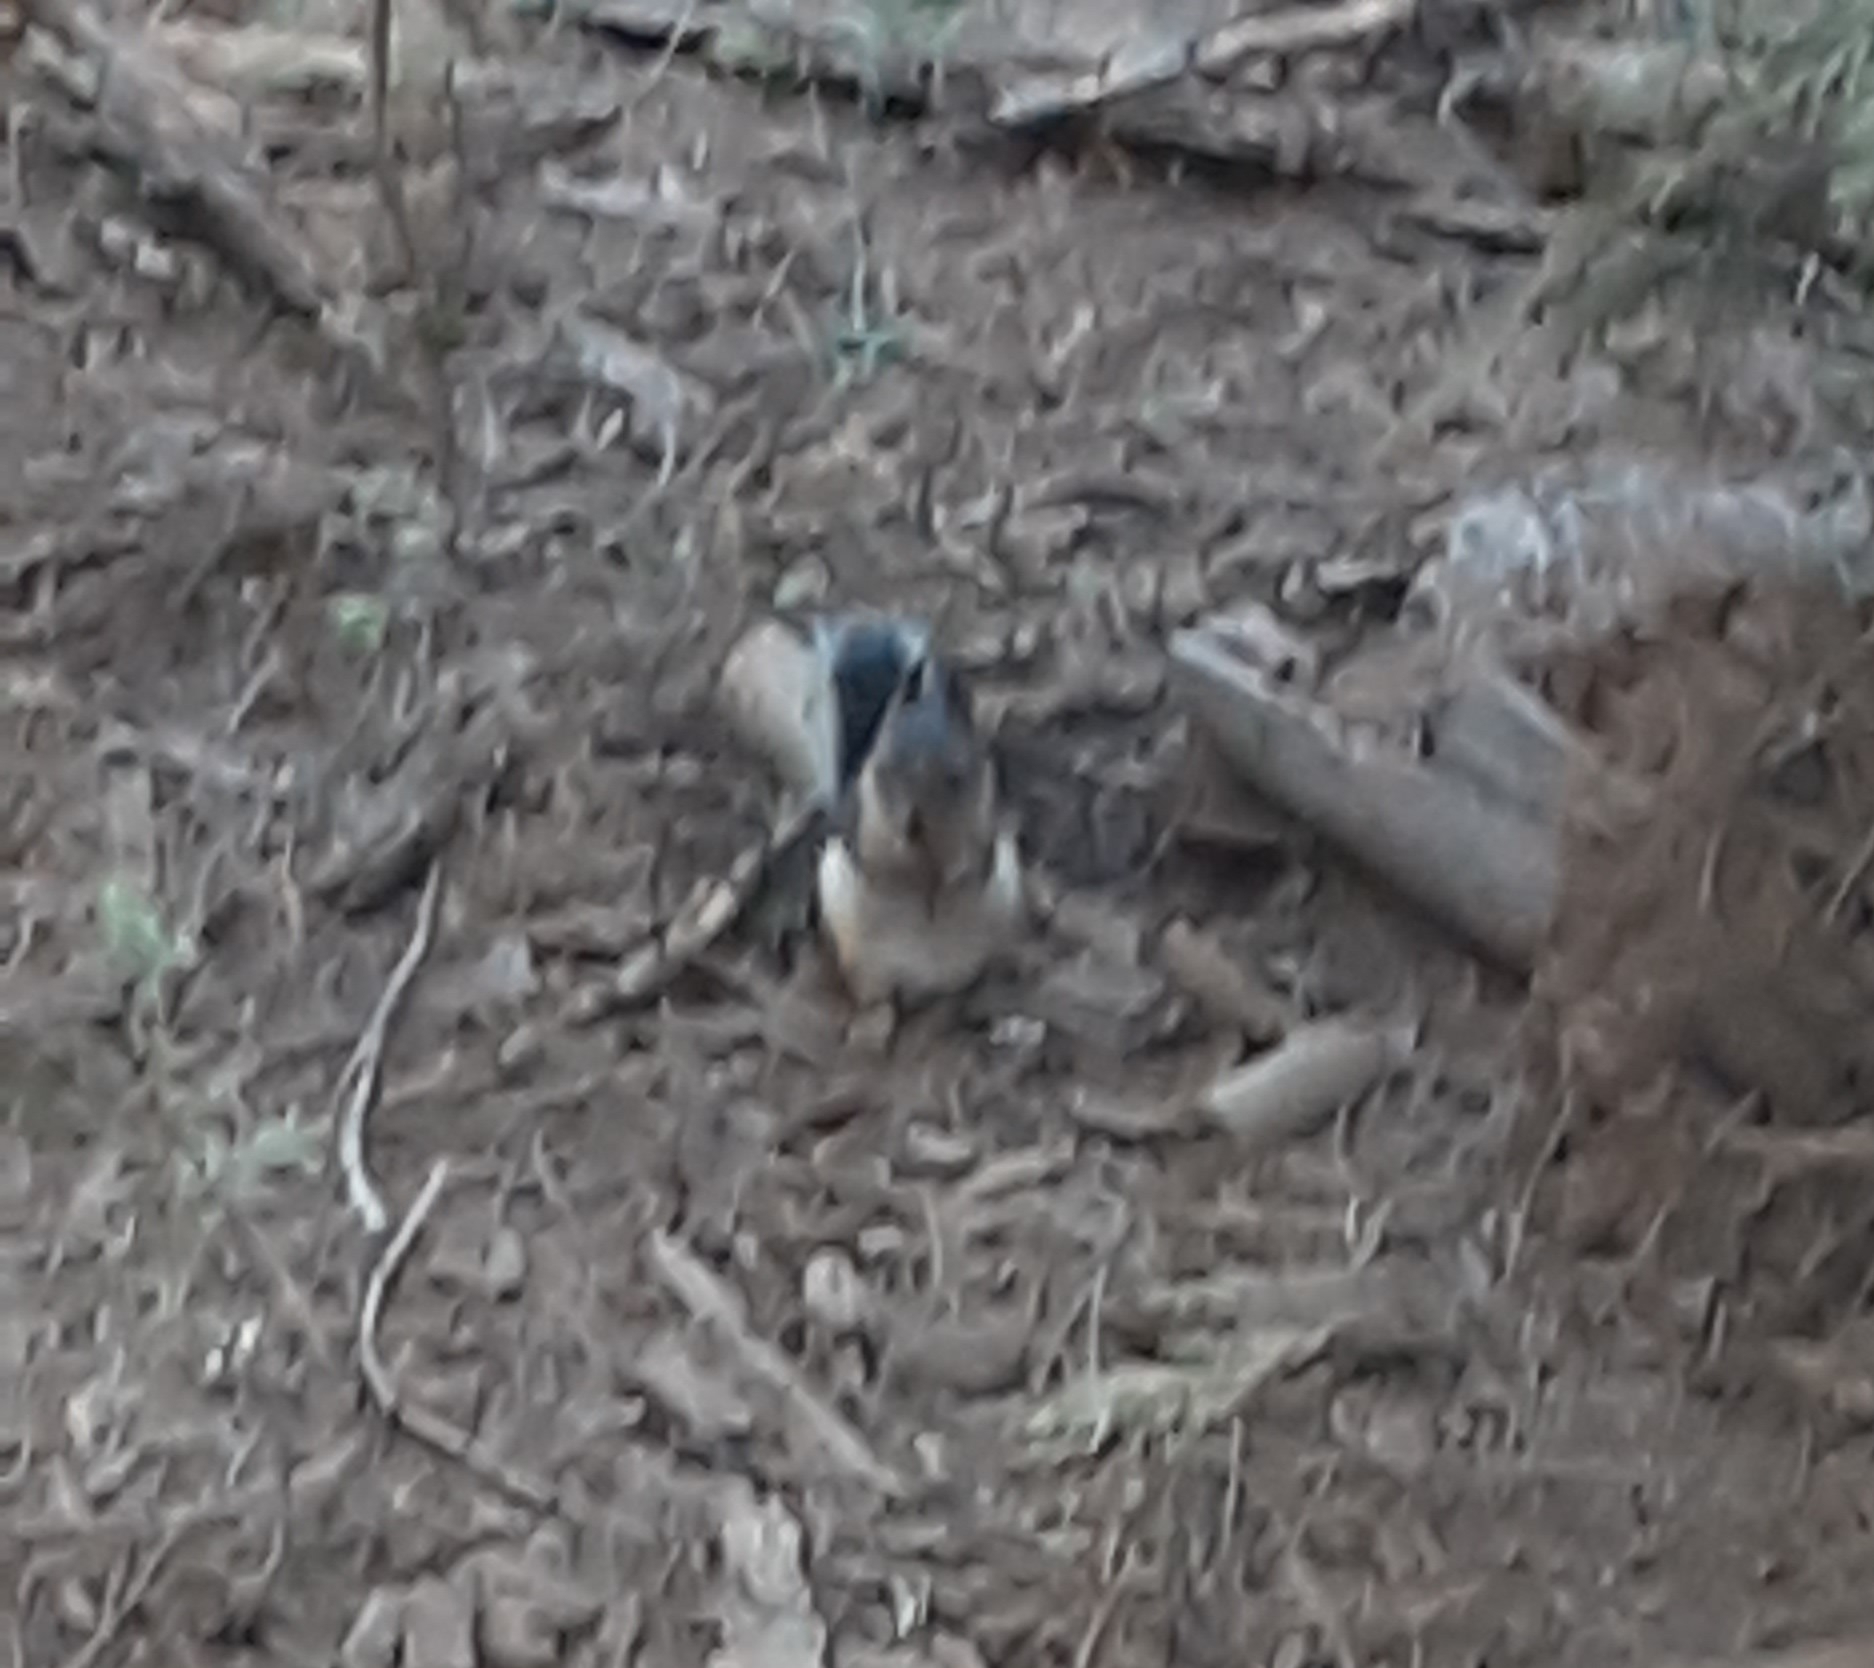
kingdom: Animalia
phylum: Chordata
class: Mammalia
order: Rodentia
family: Sciuridae
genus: Tamiasciurus
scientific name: Tamiasciurus douglasii
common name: Douglas's squirrel
